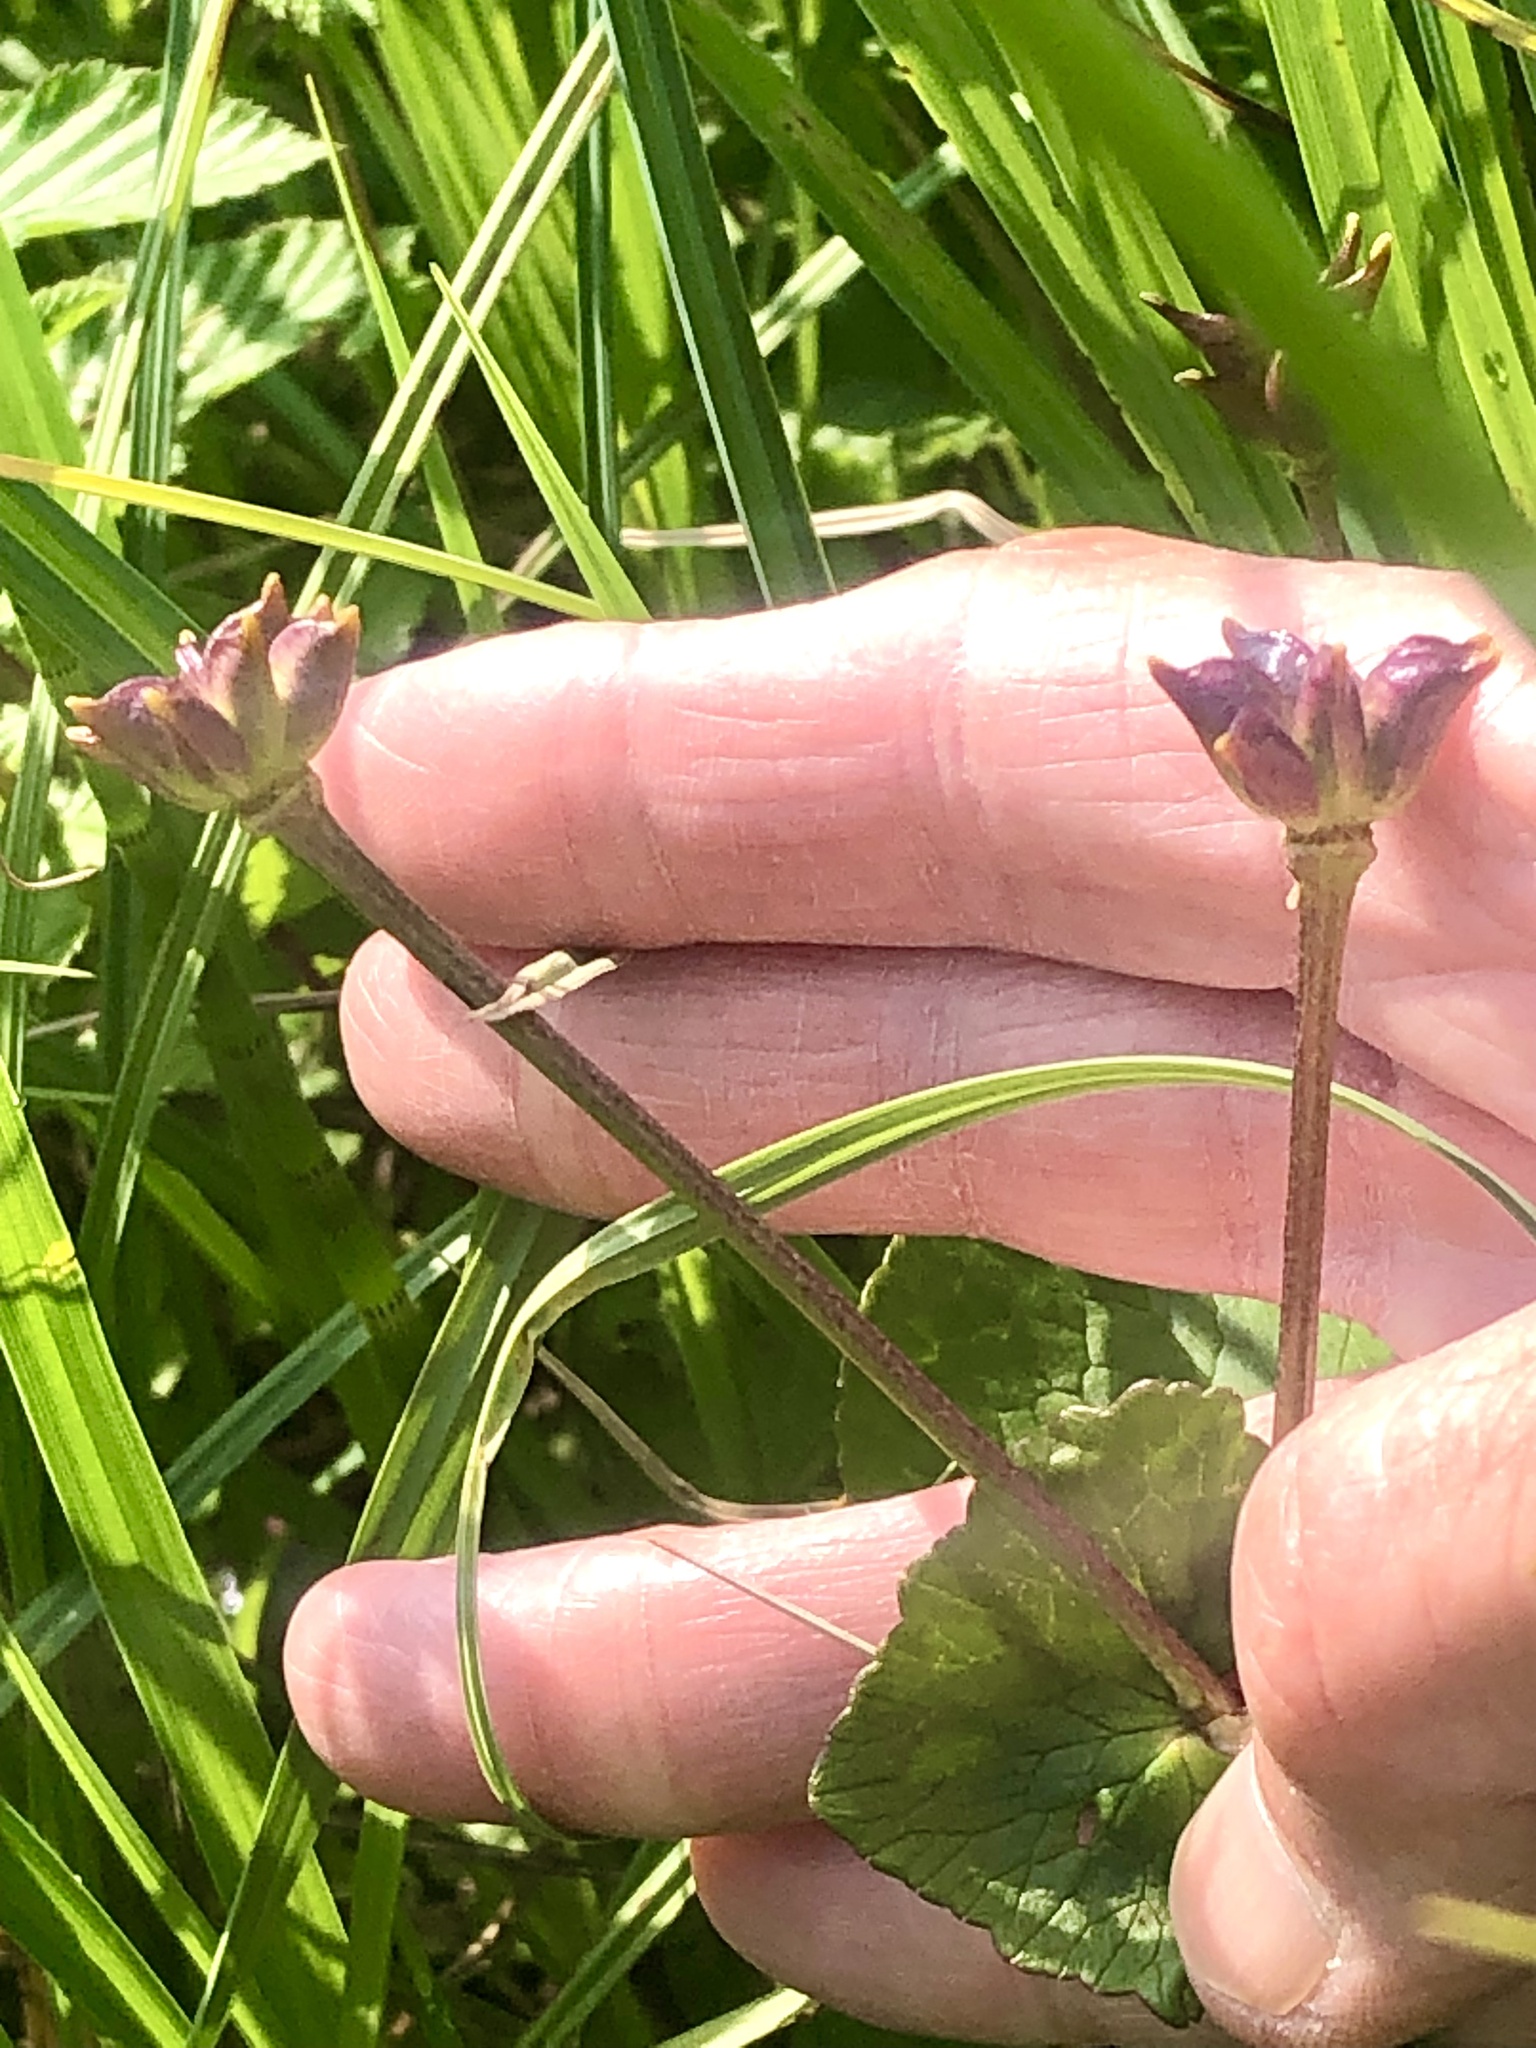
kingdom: Plantae
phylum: Tracheophyta
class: Magnoliopsida
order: Ranunculales
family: Ranunculaceae
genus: Caltha
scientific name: Caltha palustris
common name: Marsh marigold
